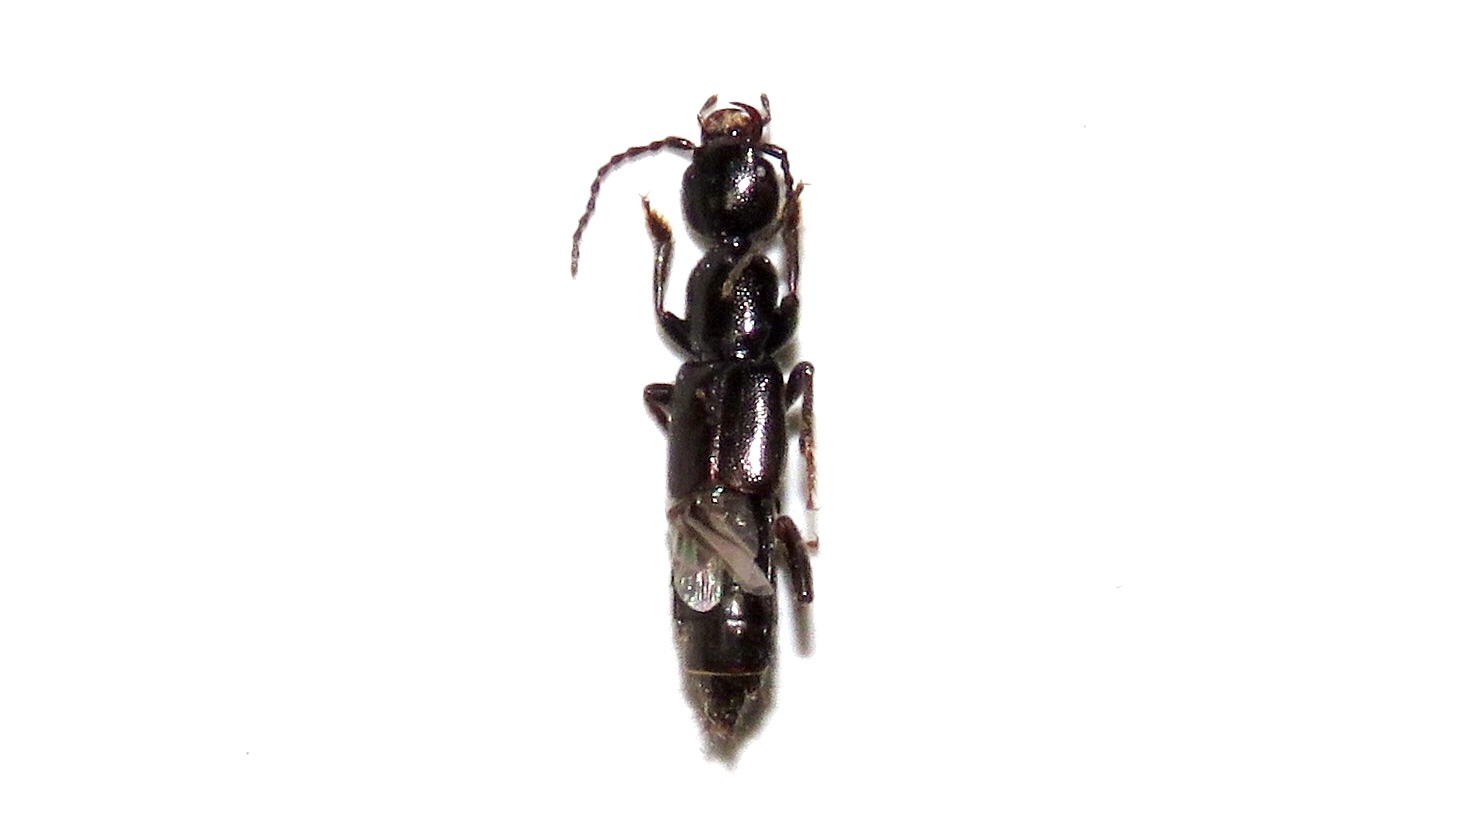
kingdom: Animalia
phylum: Arthropoda
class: Insecta
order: Coleoptera
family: Staphylinidae
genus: Lobrathium
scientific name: Lobrathium grande
